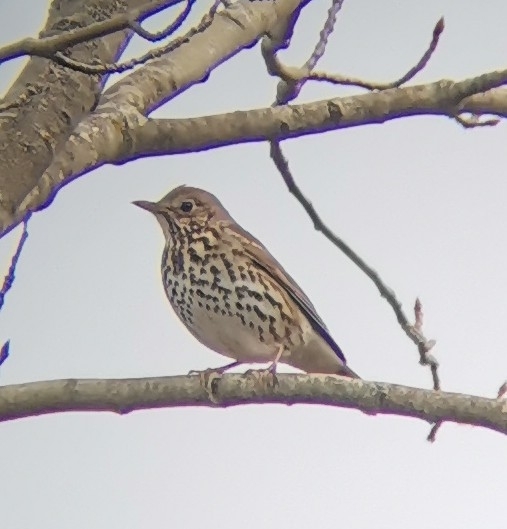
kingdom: Animalia
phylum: Chordata
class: Aves
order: Passeriformes
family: Turdidae
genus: Turdus
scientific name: Turdus philomelos
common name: Song thrush
